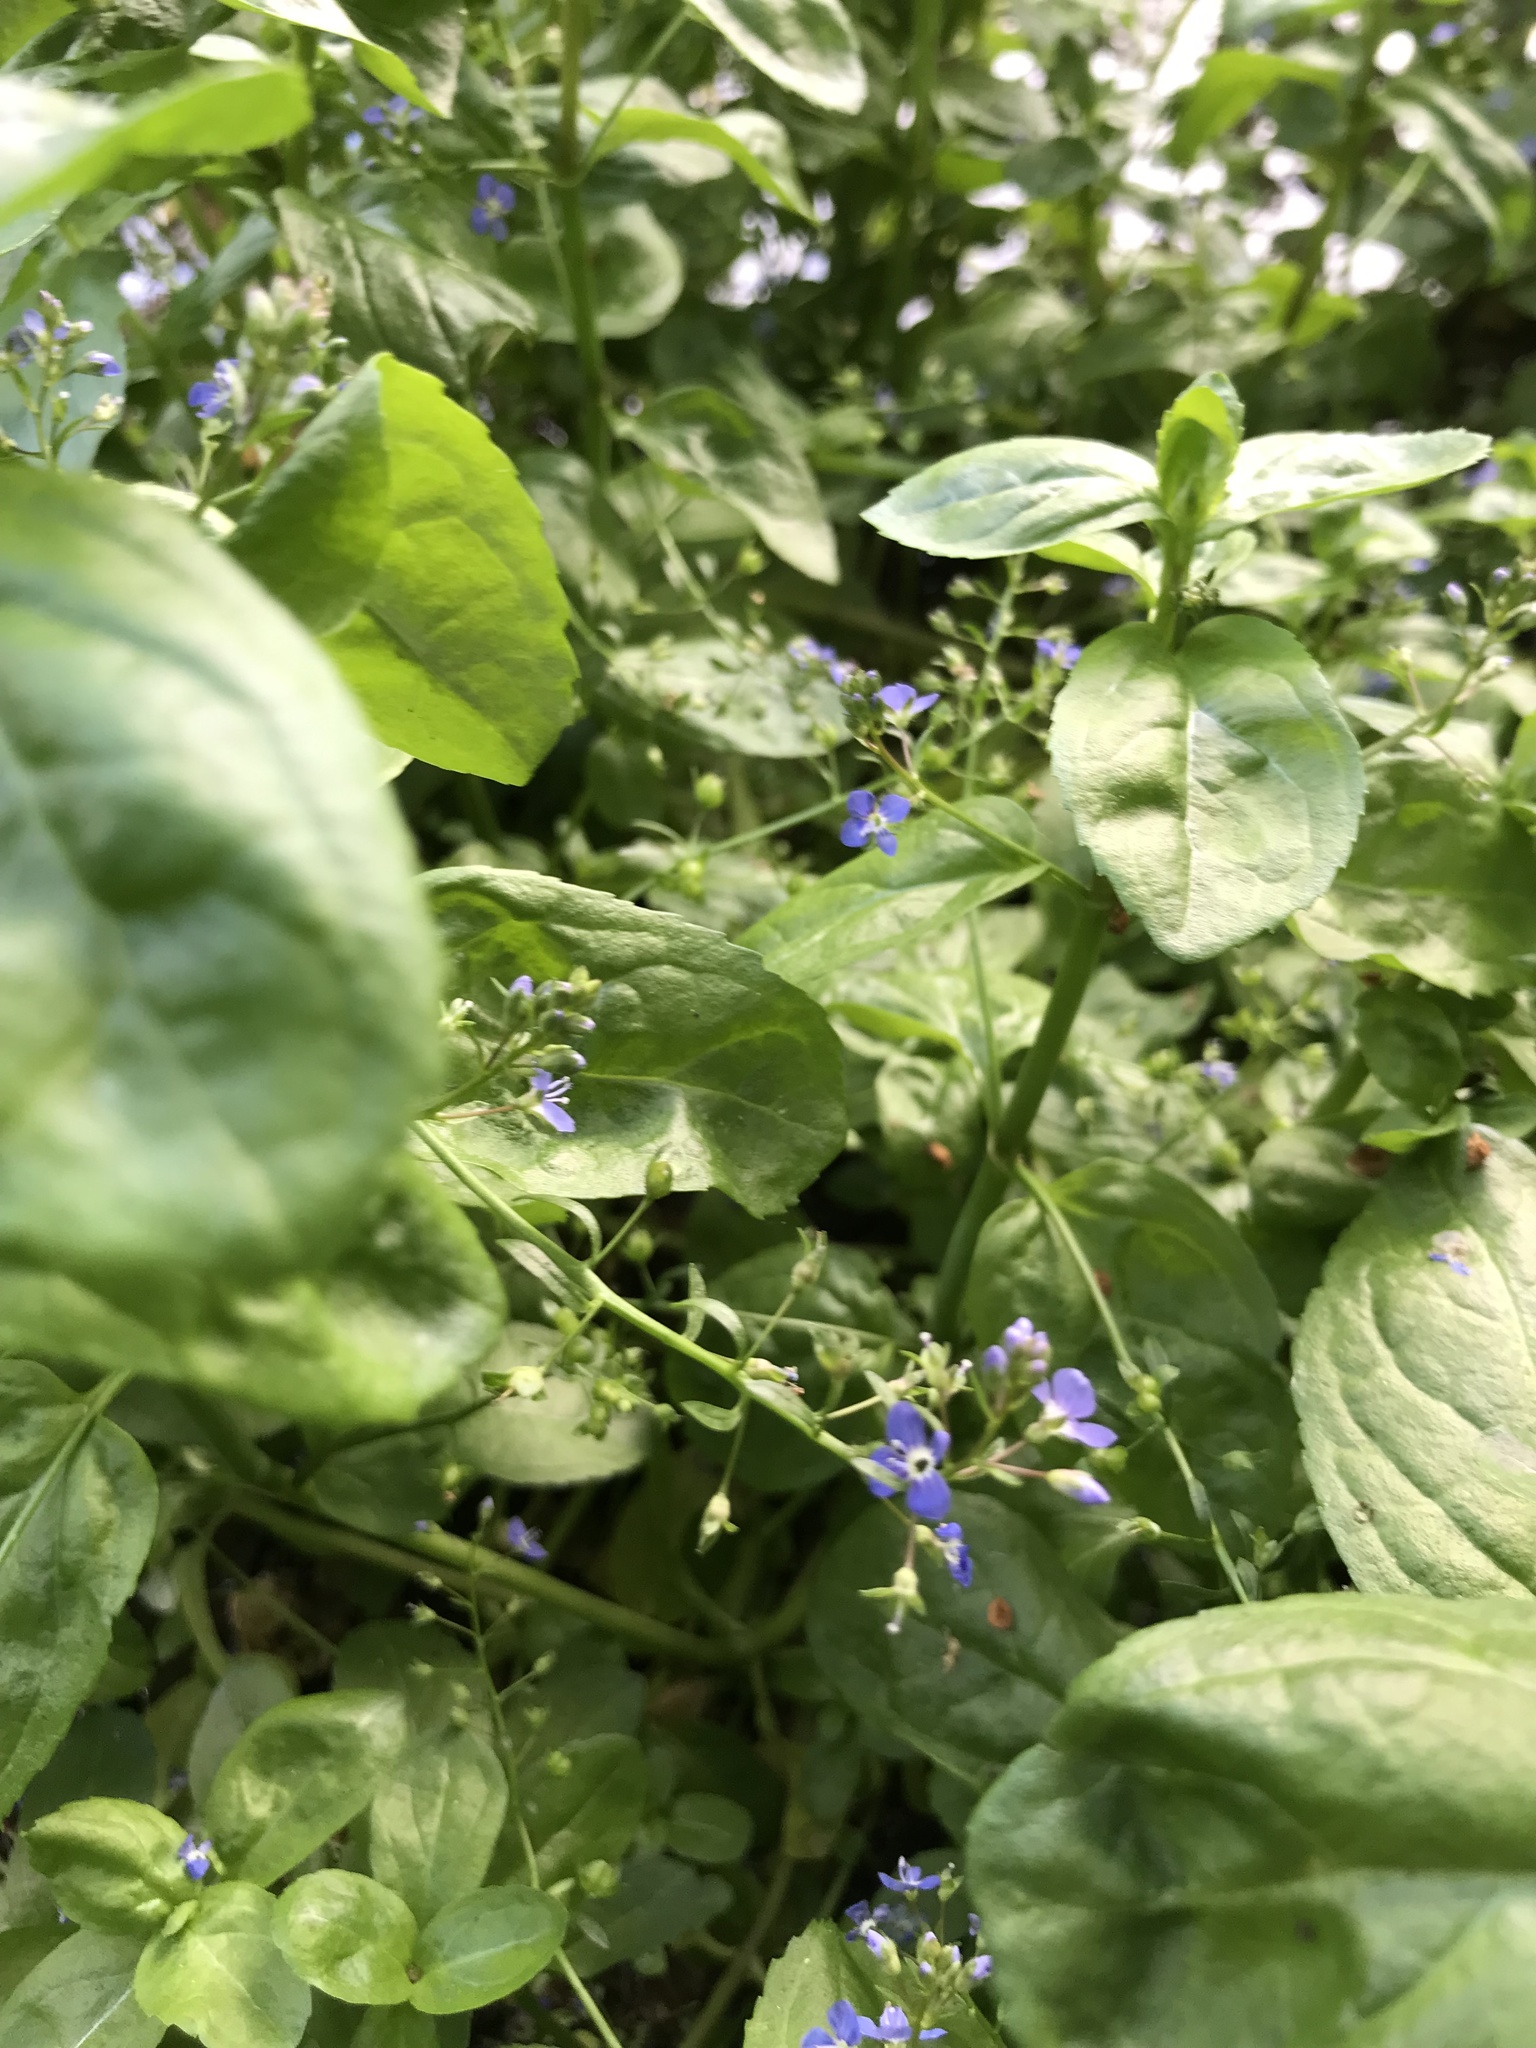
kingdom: Plantae
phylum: Tracheophyta
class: Magnoliopsida
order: Lamiales
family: Plantaginaceae
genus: Veronica
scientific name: Veronica beccabunga
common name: Brooklime
